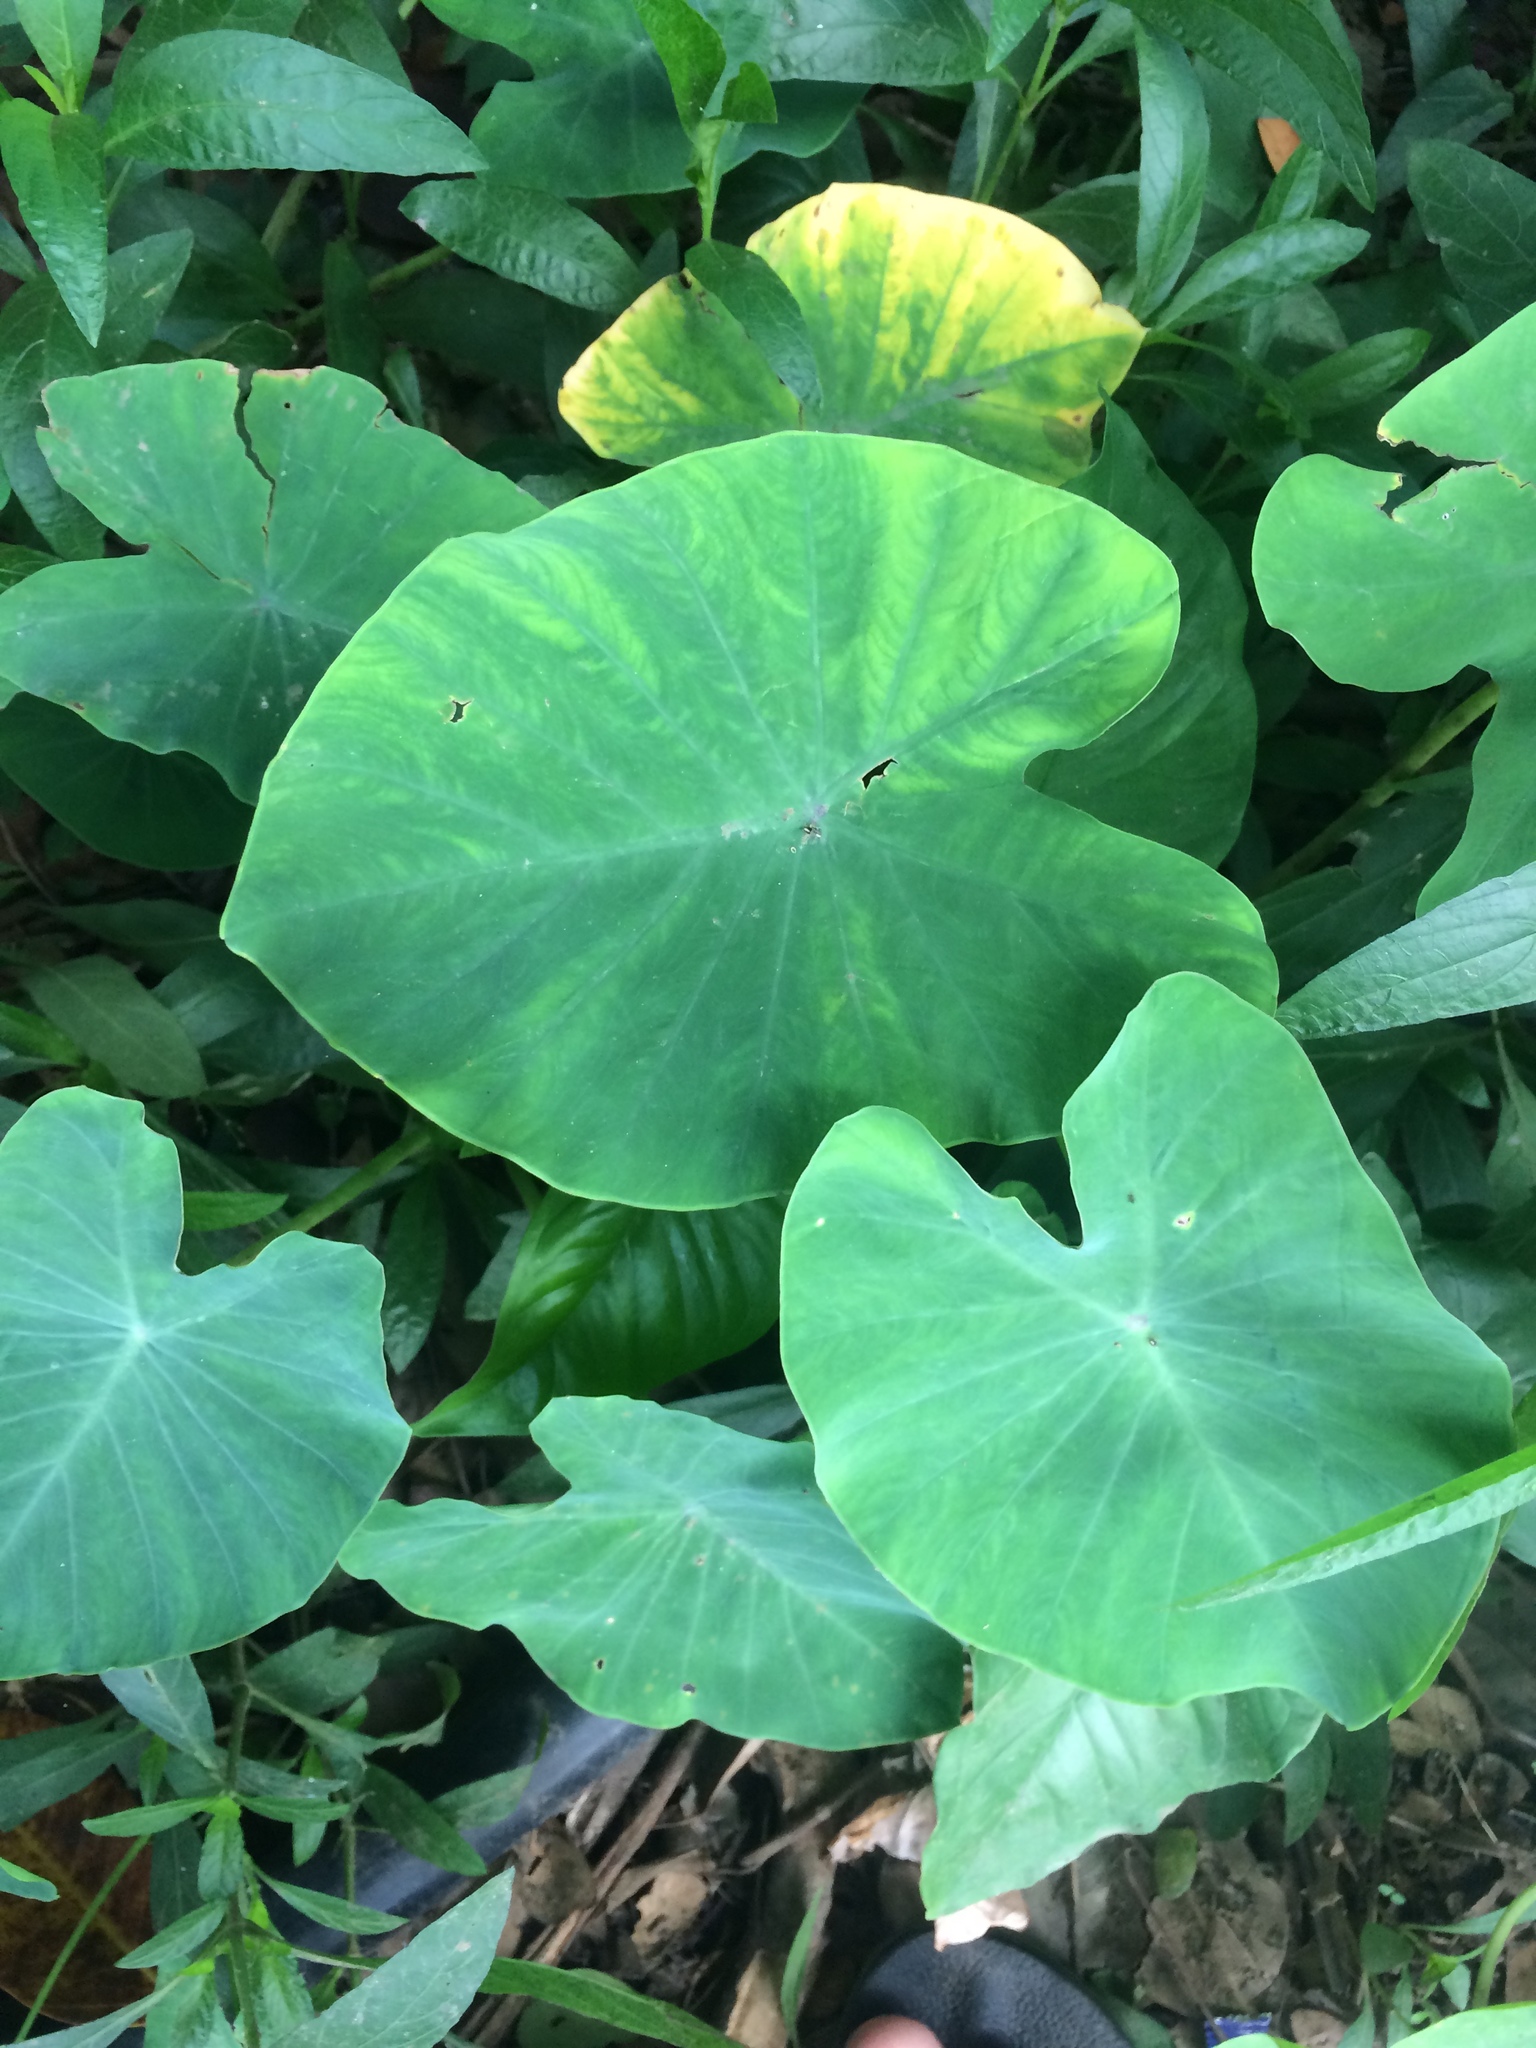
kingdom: Plantae
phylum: Tracheophyta
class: Liliopsida
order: Alismatales
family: Araceae
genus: Colocasia
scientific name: Colocasia esculenta
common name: Taro
